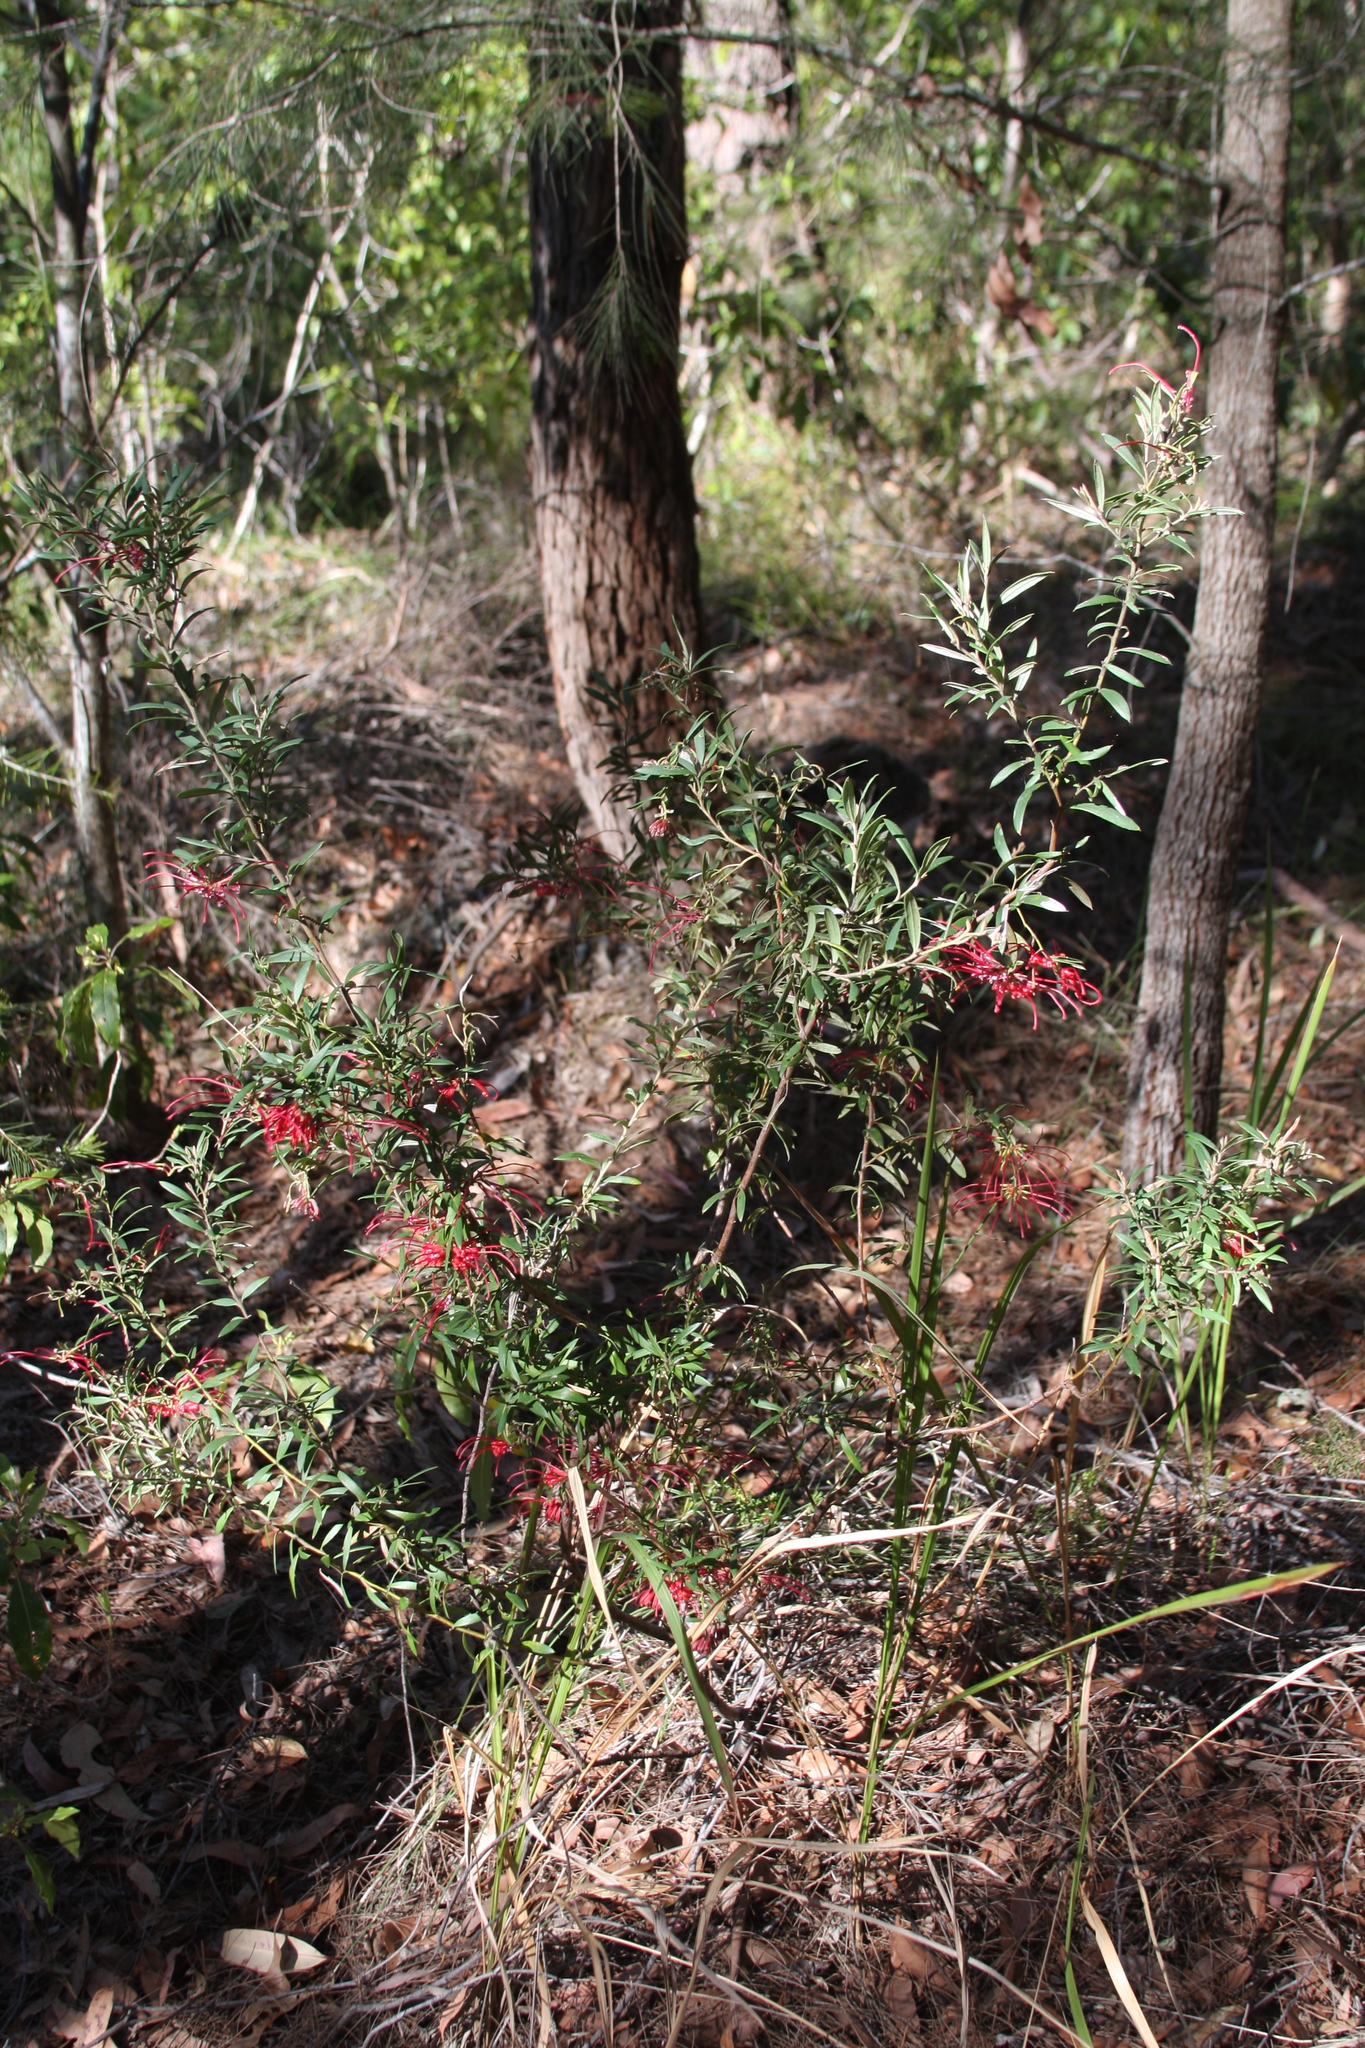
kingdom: Plantae
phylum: Tracheophyta
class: Magnoliopsida
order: Proteales
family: Proteaceae
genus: Grevillea
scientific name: Grevillea speciosa
